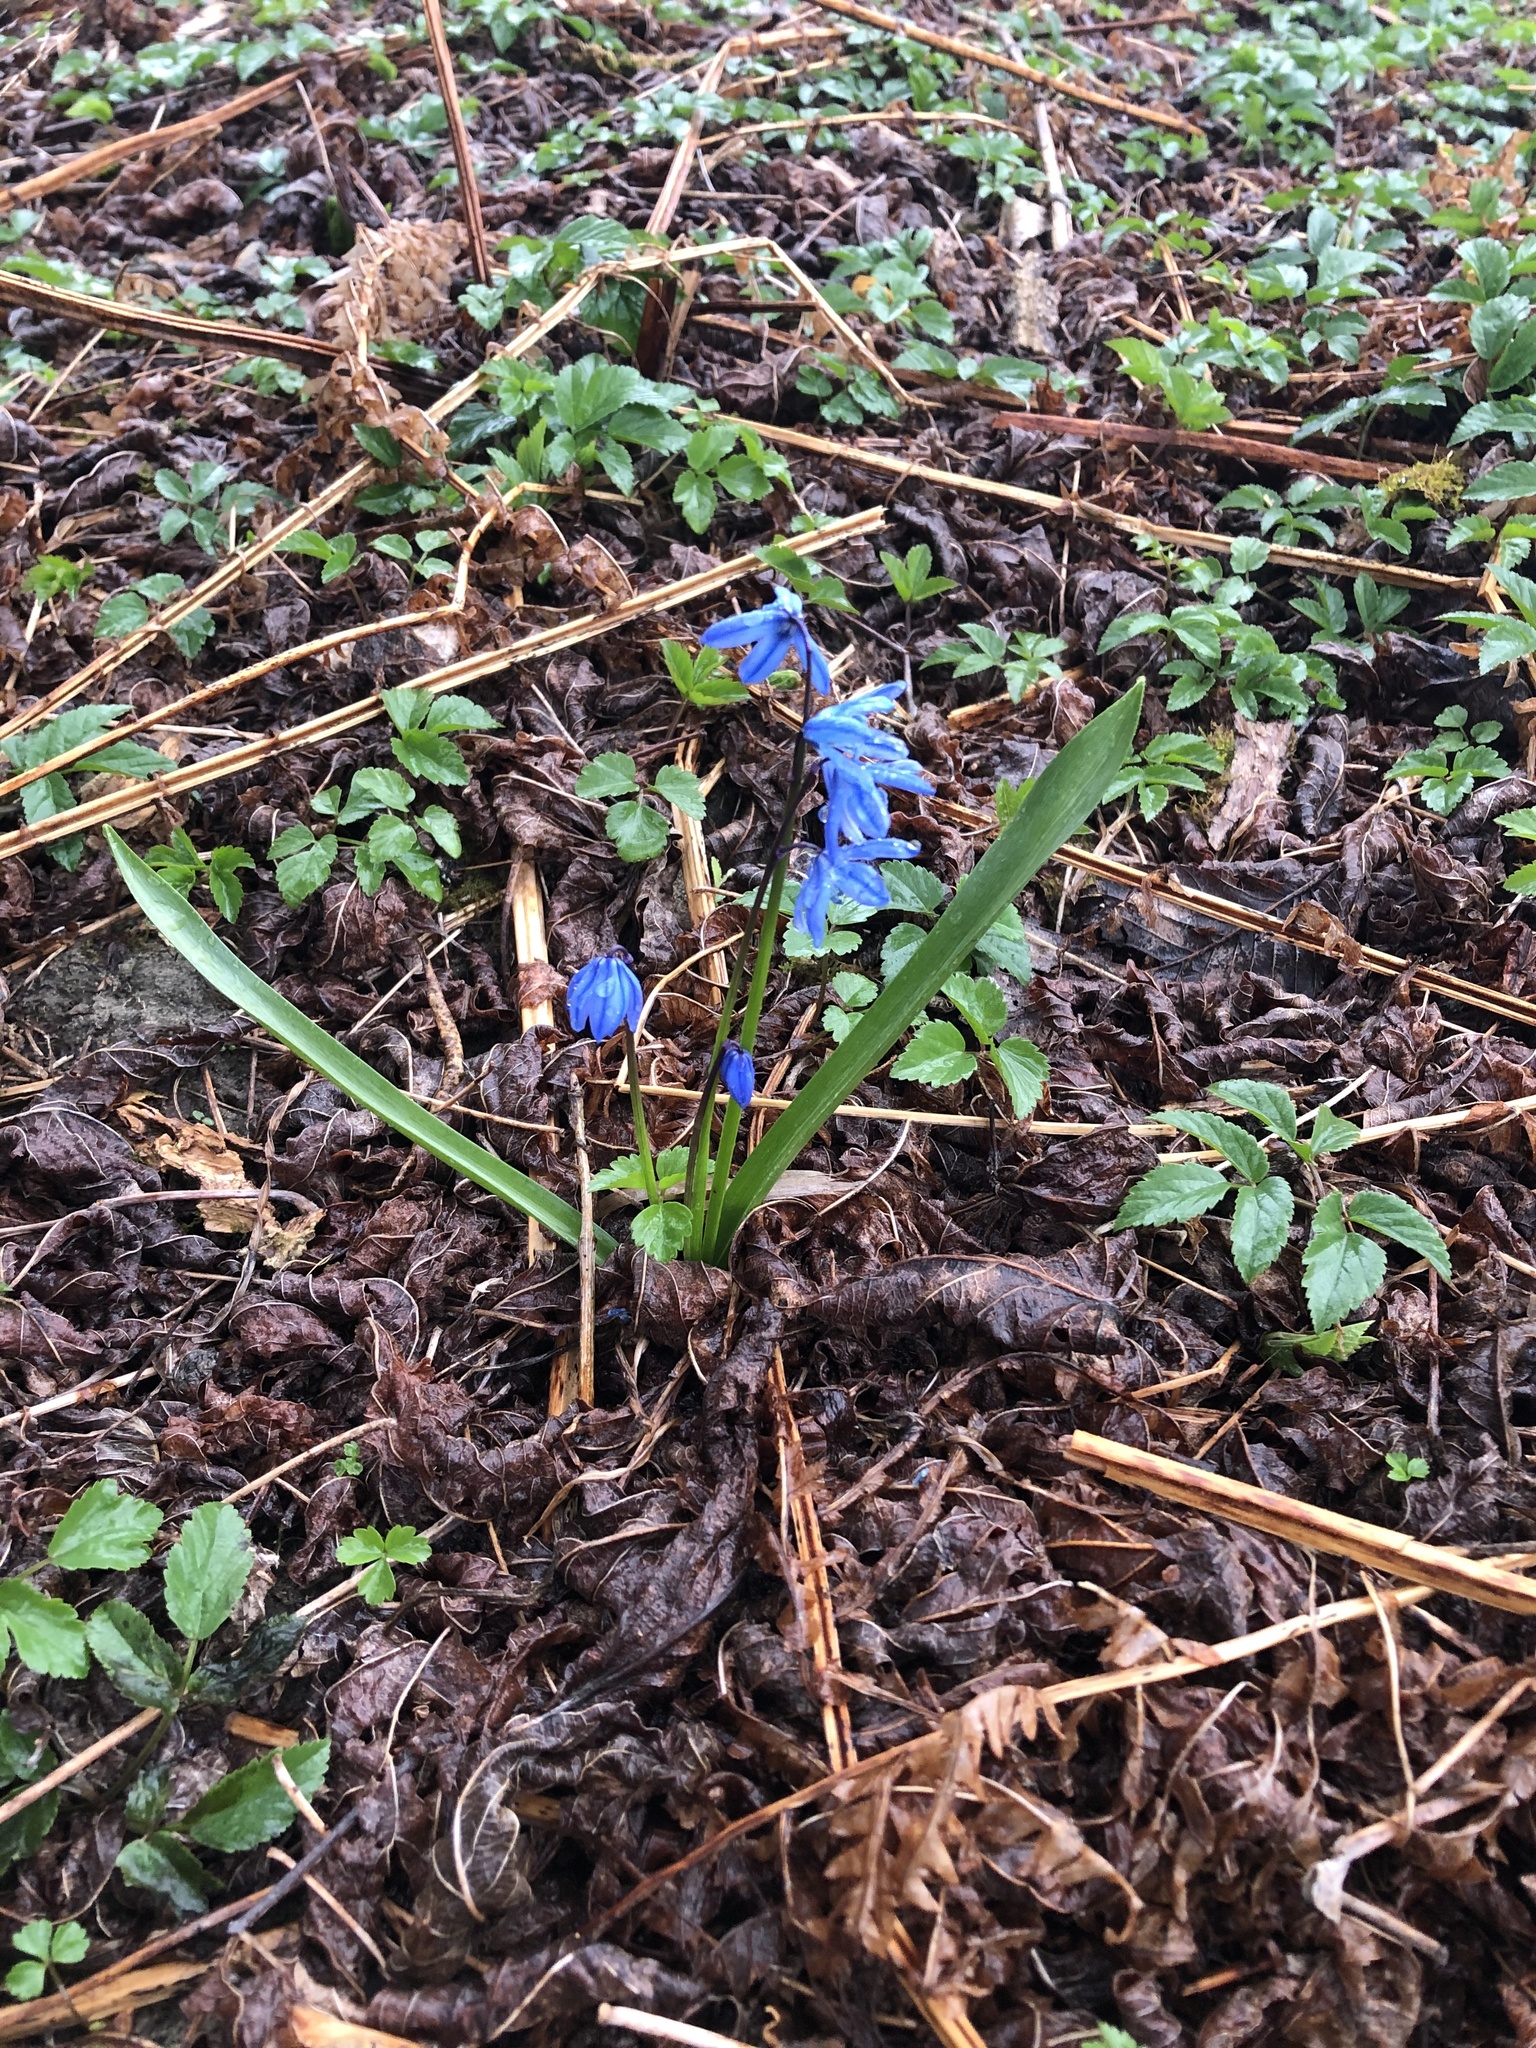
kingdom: Plantae
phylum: Tracheophyta
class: Liliopsida
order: Asparagales
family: Asparagaceae
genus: Scilla
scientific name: Scilla siberica
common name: Siberian squill
